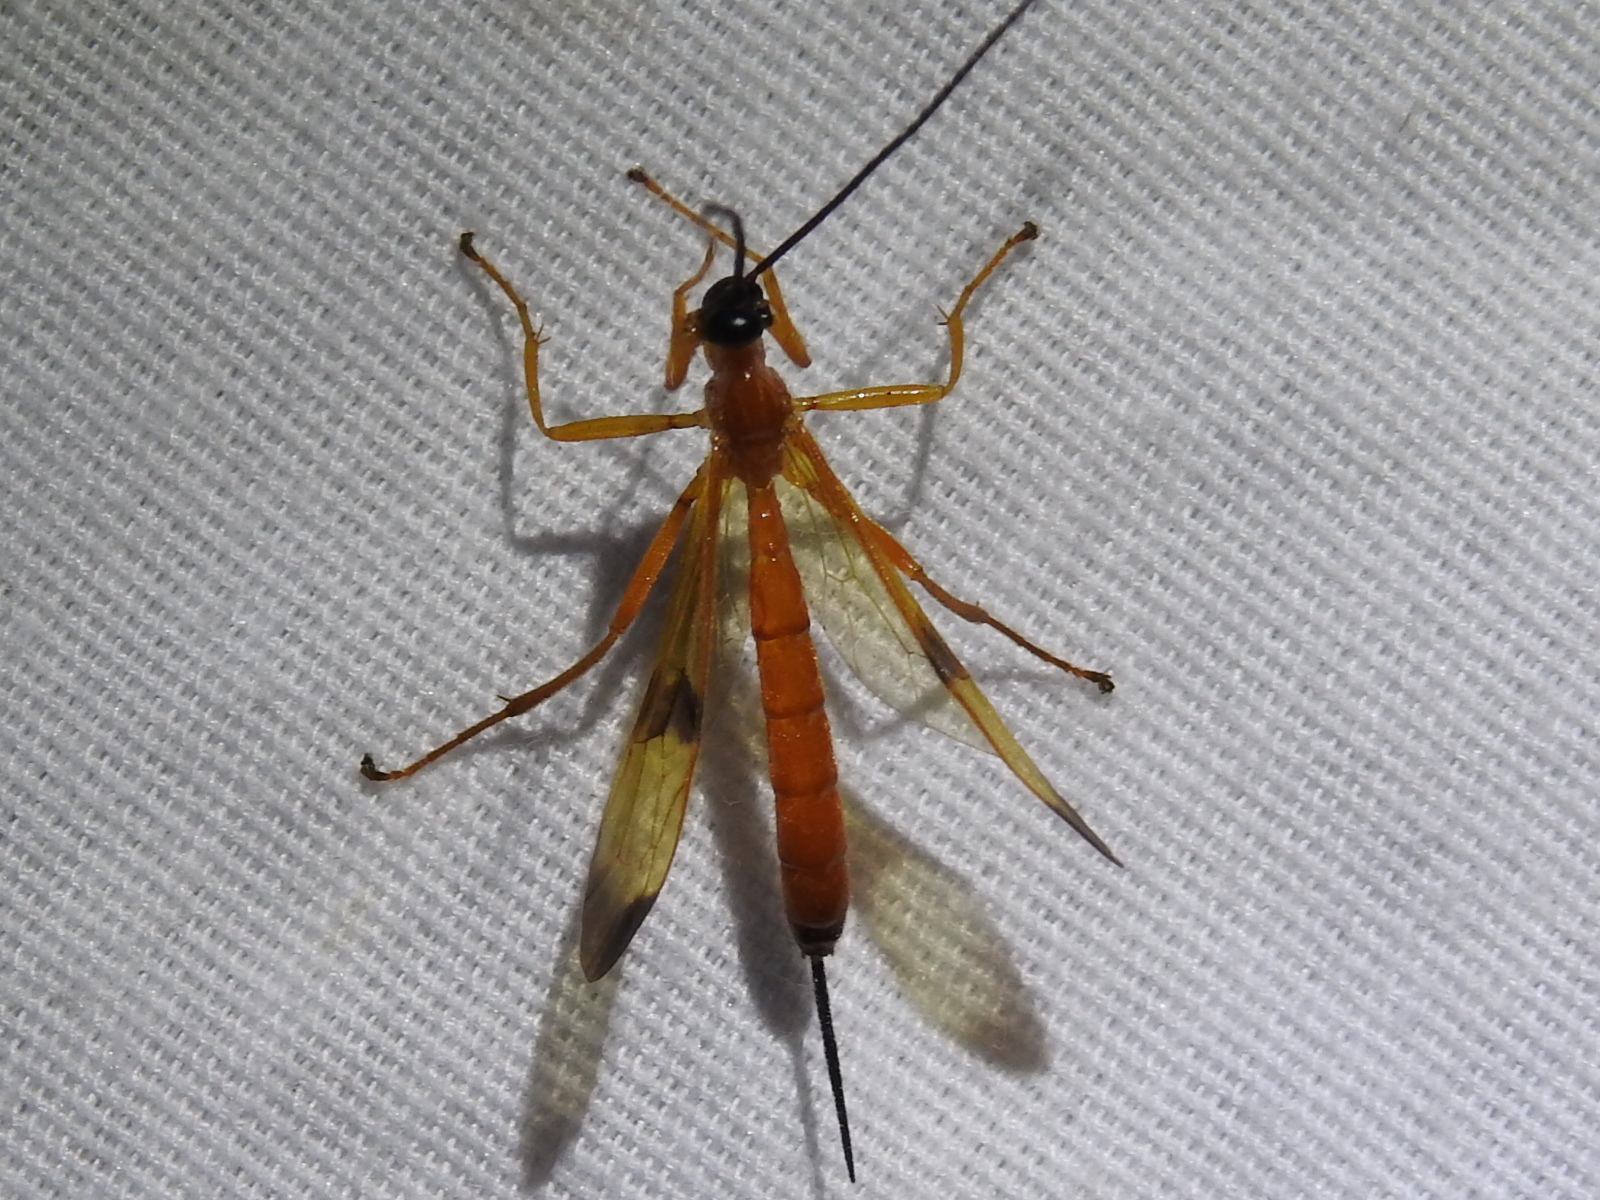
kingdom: Animalia
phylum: Arthropoda
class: Insecta
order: Hymenoptera
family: Ichneumonidae
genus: Acrotaphus
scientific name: Acrotaphus wiltii
